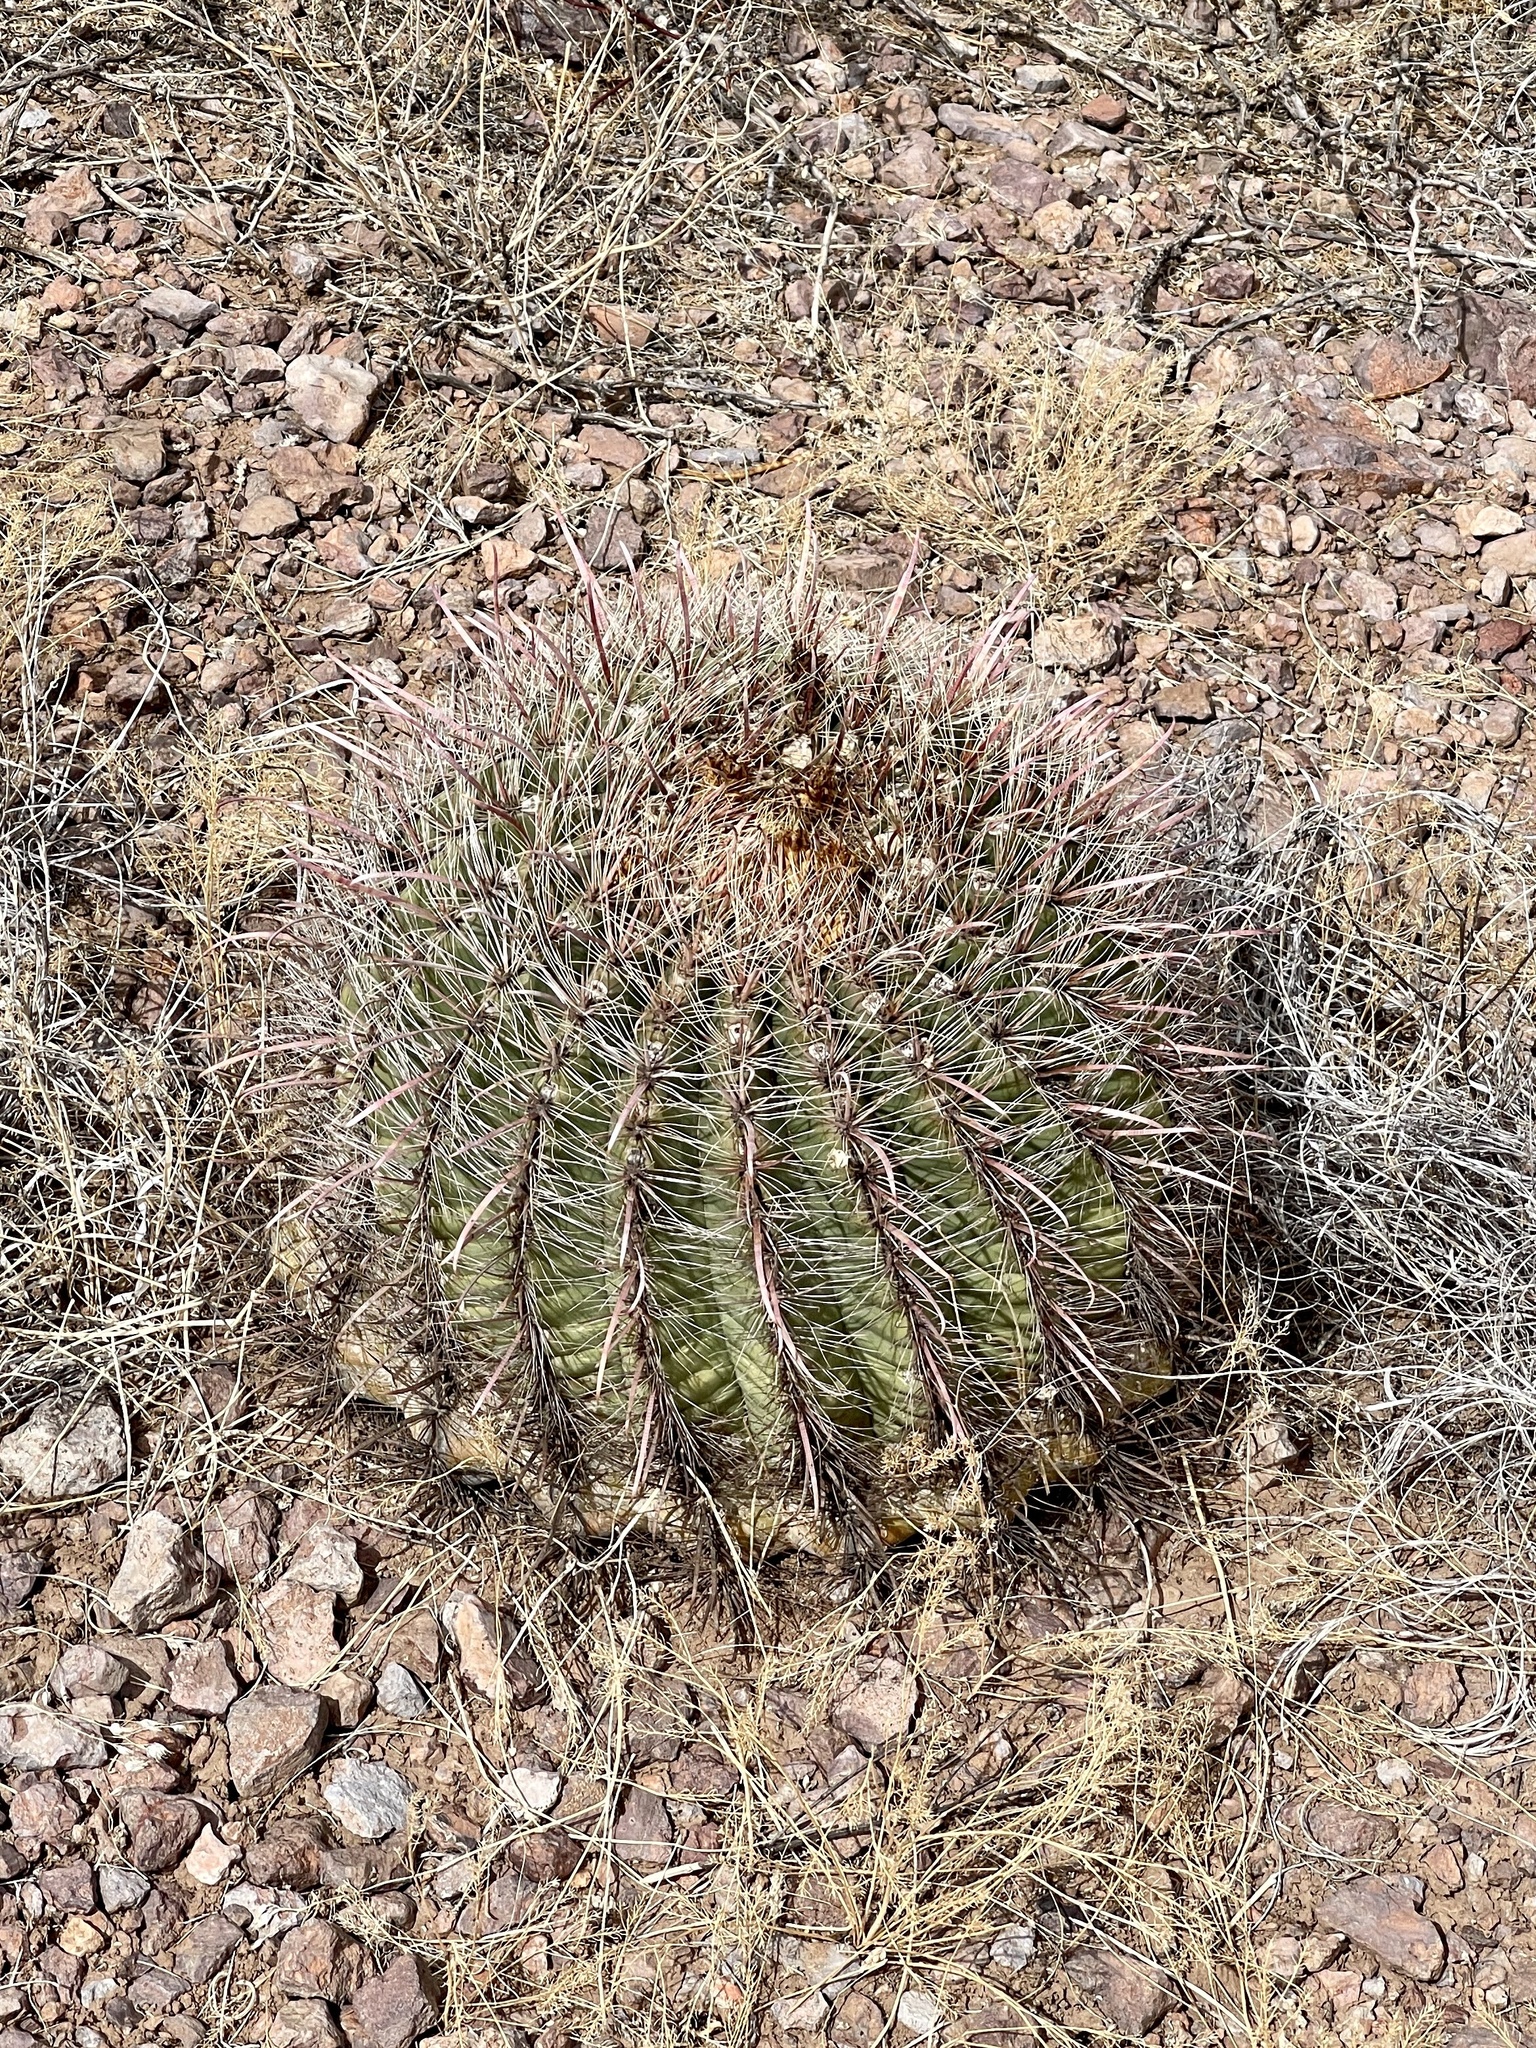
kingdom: Plantae
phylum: Tracheophyta
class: Magnoliopsida
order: Caryophyllales
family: Cactaceae
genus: Ferocactus
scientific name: Ferocactus wislizeni
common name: Candy barrel cactus
